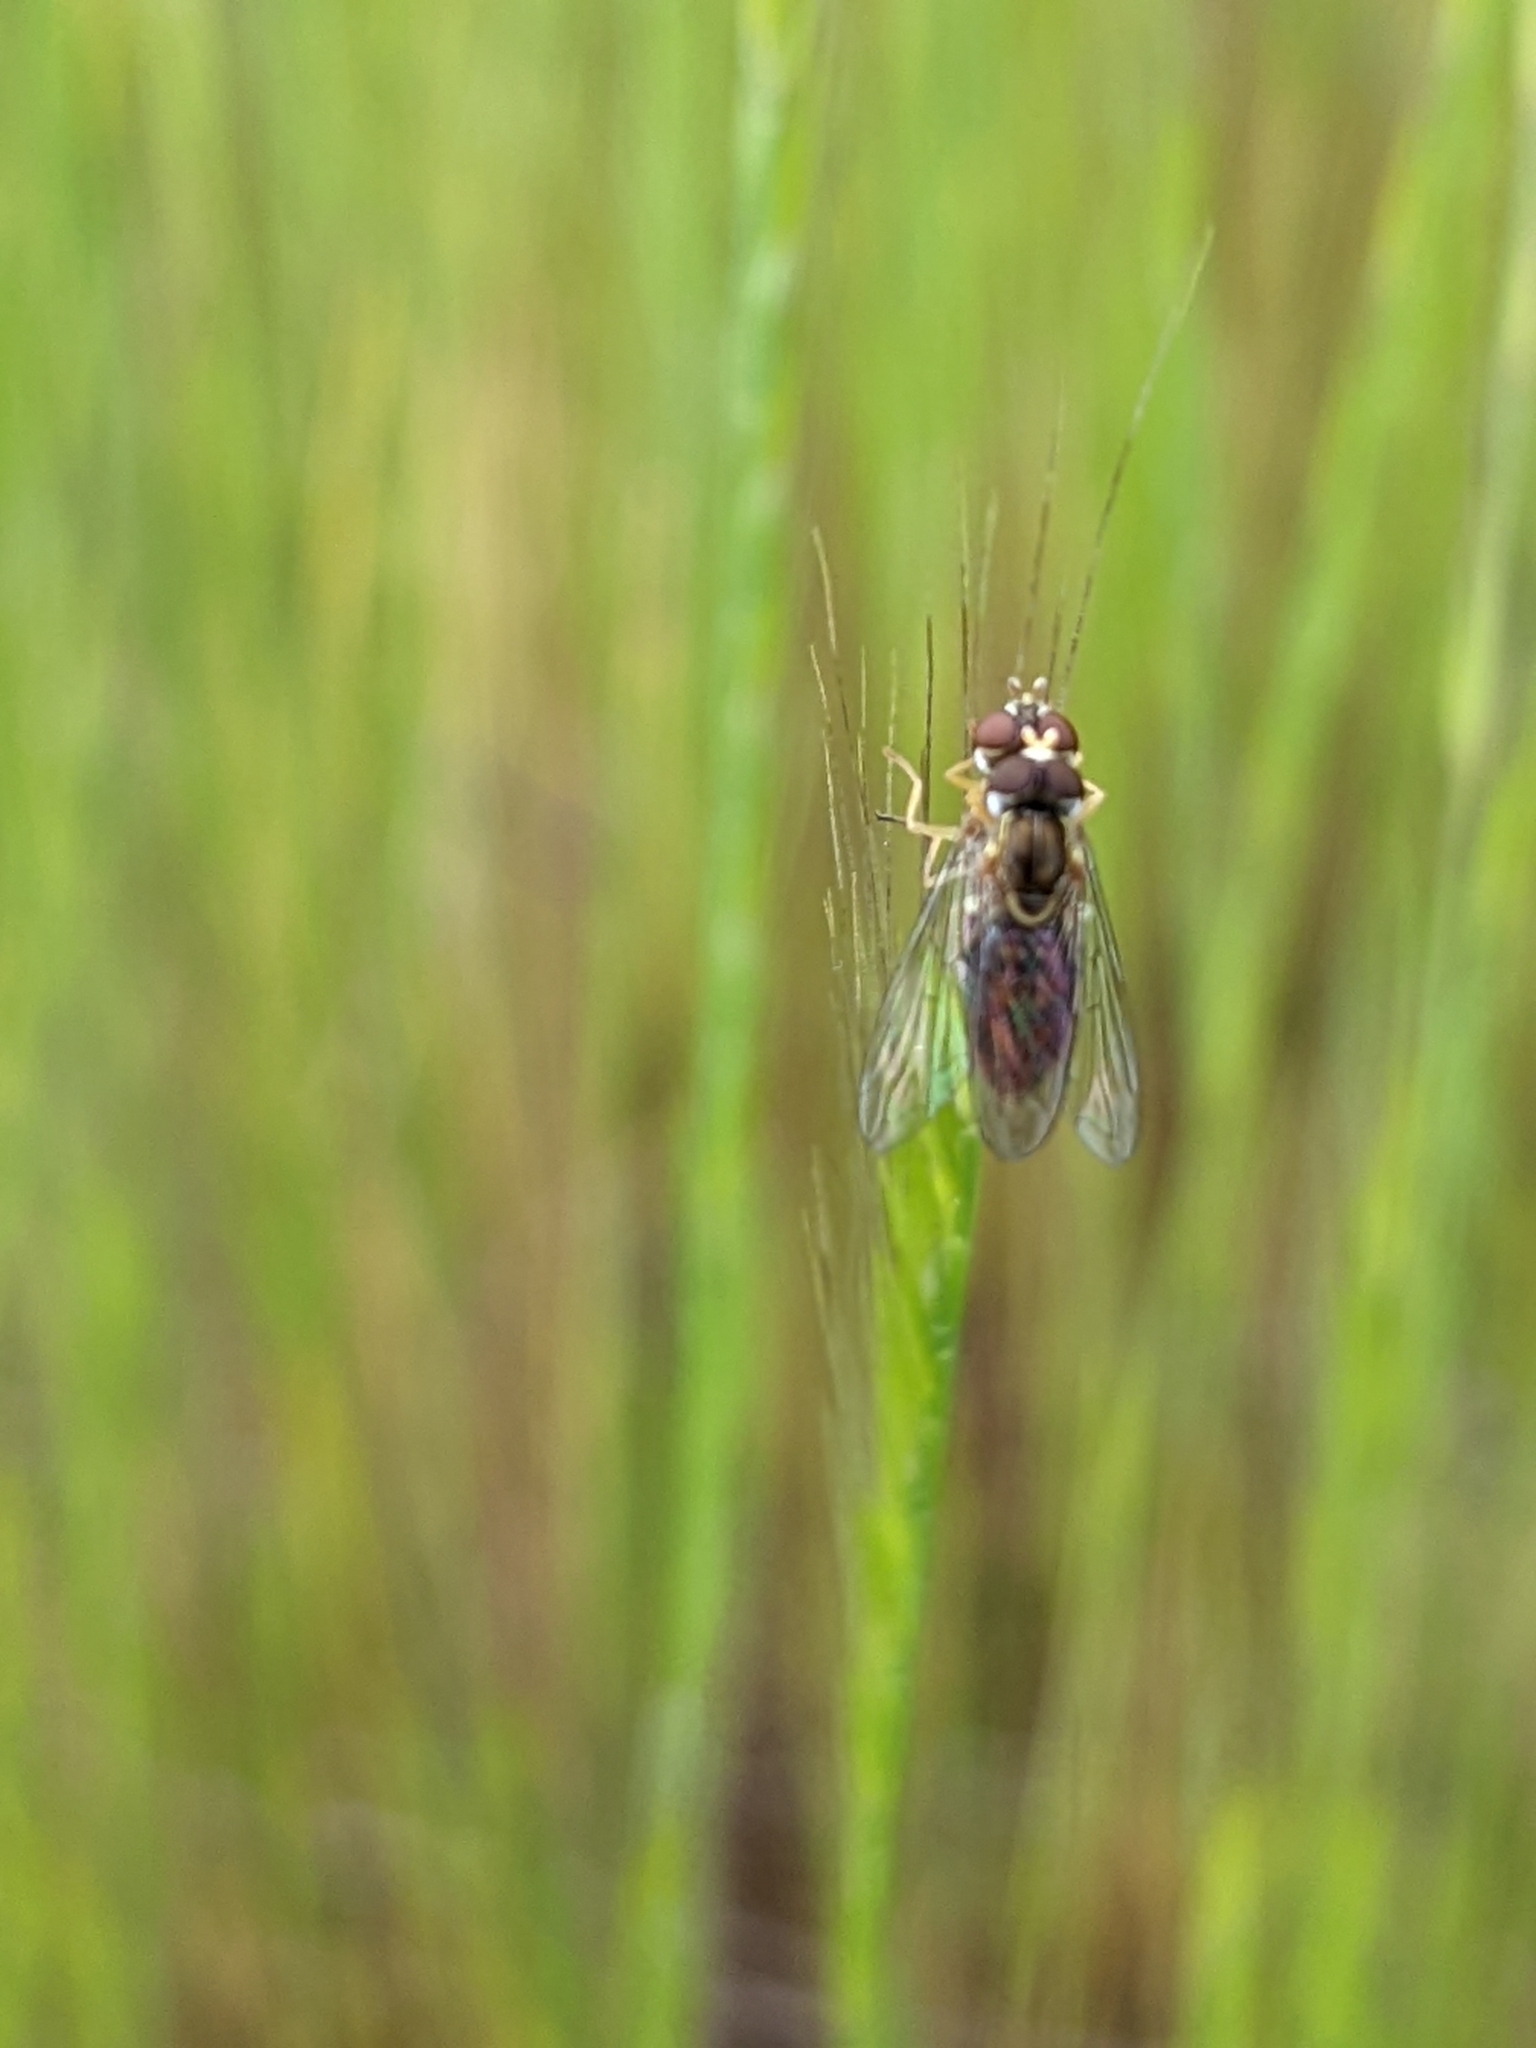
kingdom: Animalia
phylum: Arthropoda
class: Insecta
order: Diptera
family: Syrphidae
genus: Toxomerus
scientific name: Toxomerus marginatus
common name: Syrphid fly
